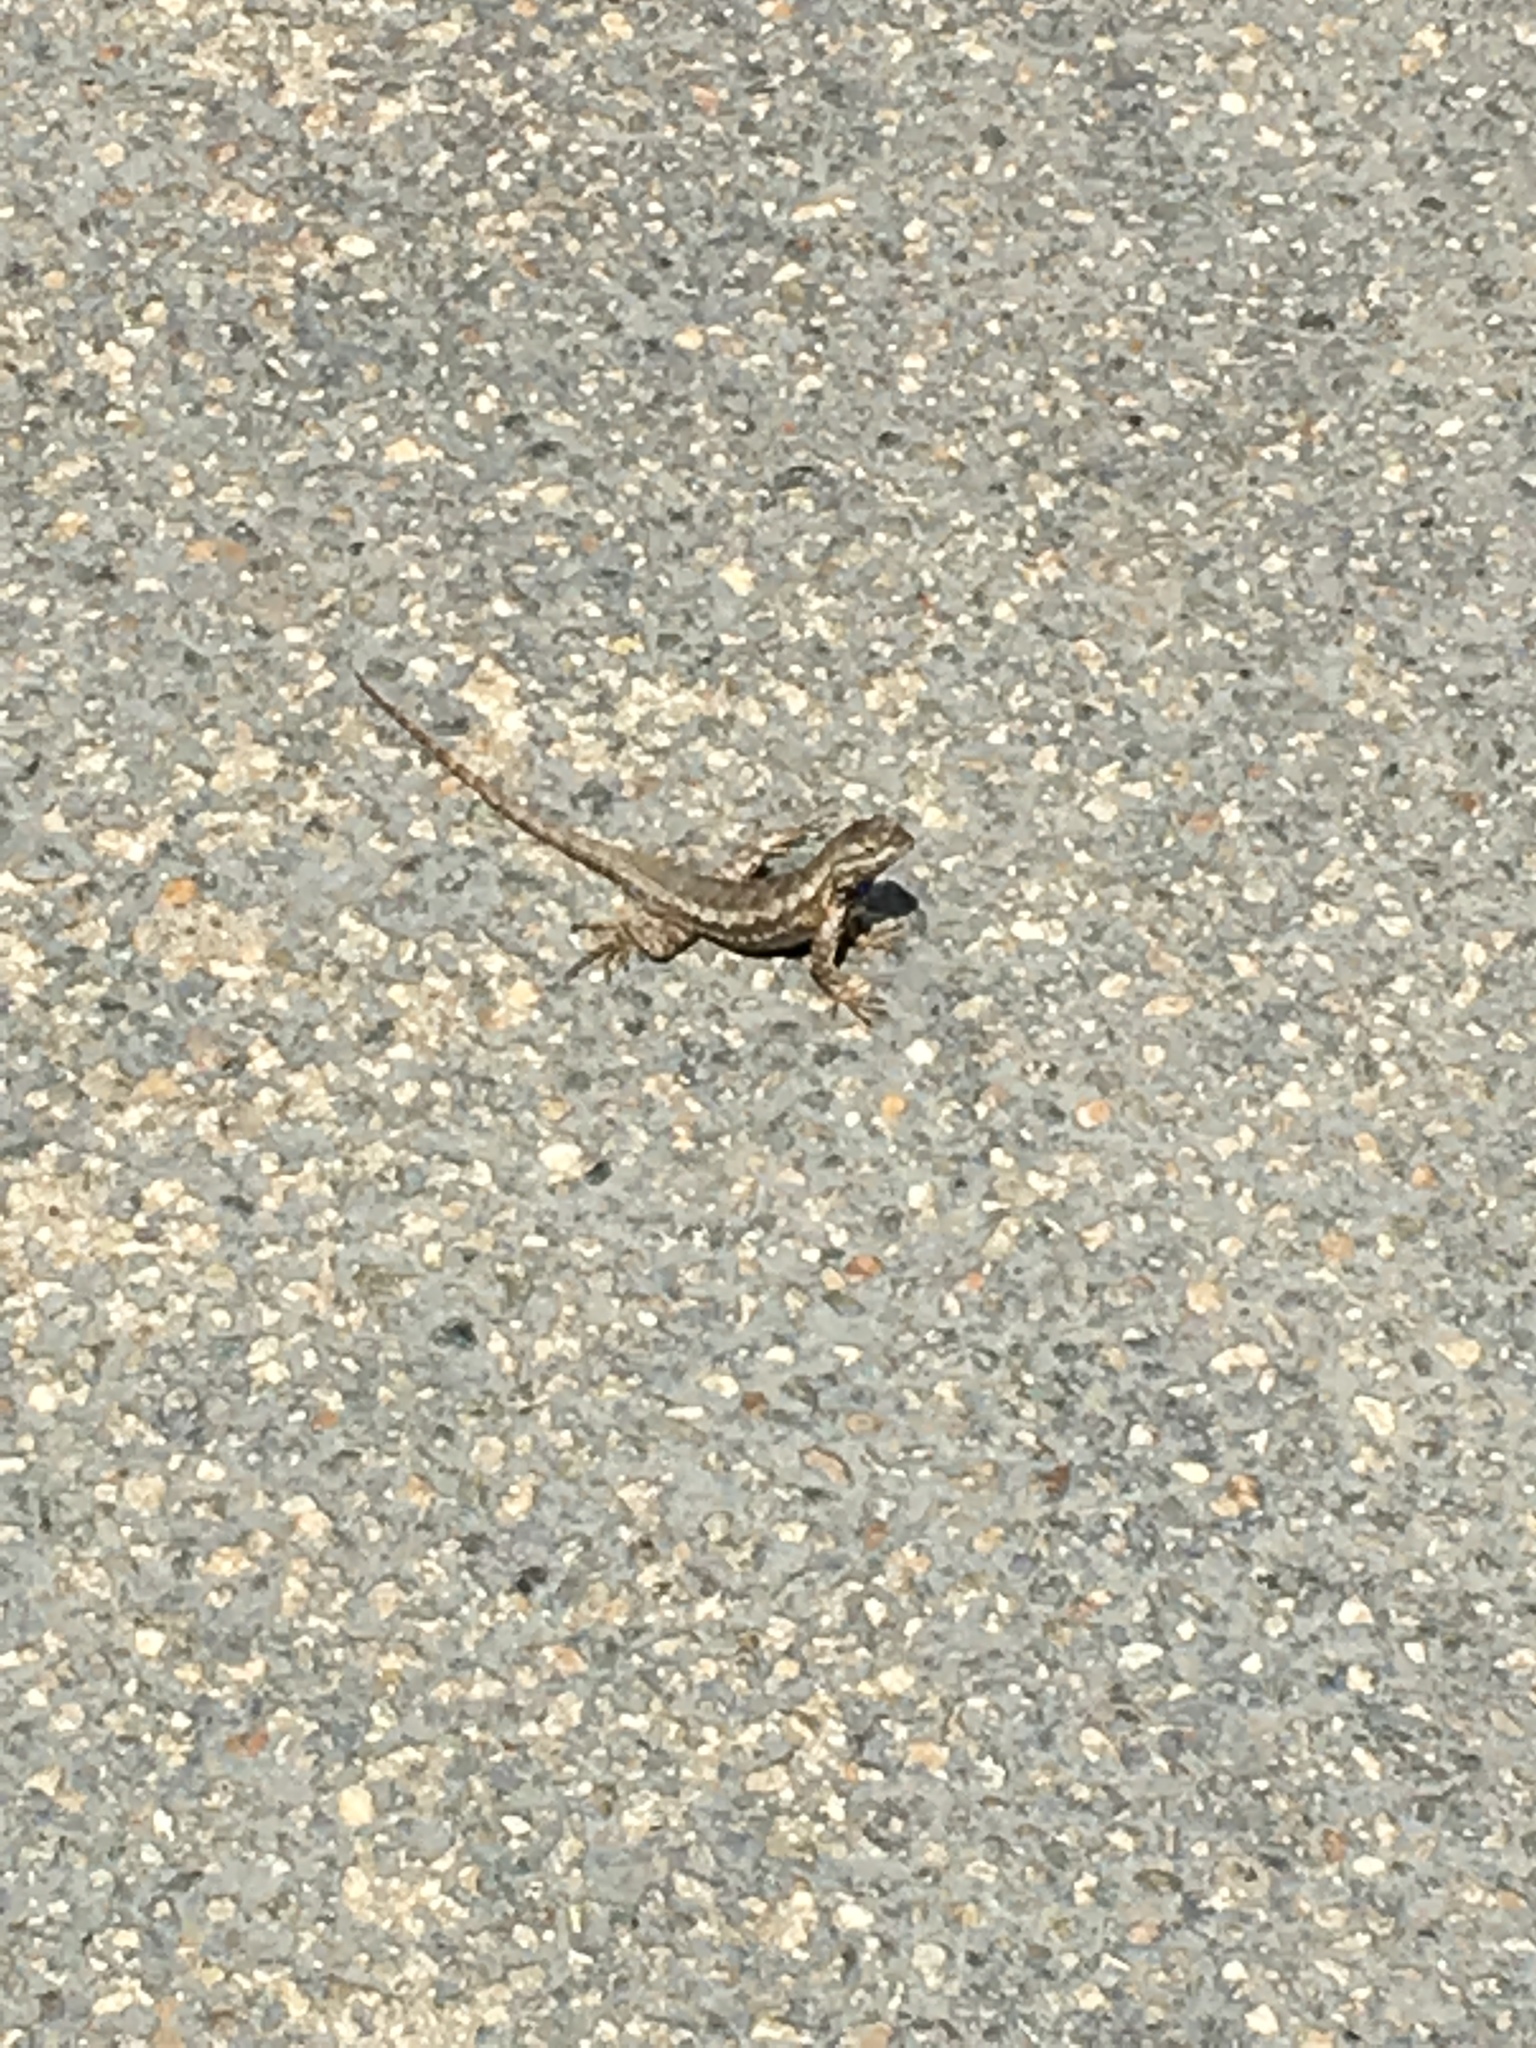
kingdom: Animalia
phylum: Chordata
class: Squamata
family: Phrynosomatidae
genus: Sceloporus
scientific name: Sceloporus occidentalis
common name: Western fence lizard
